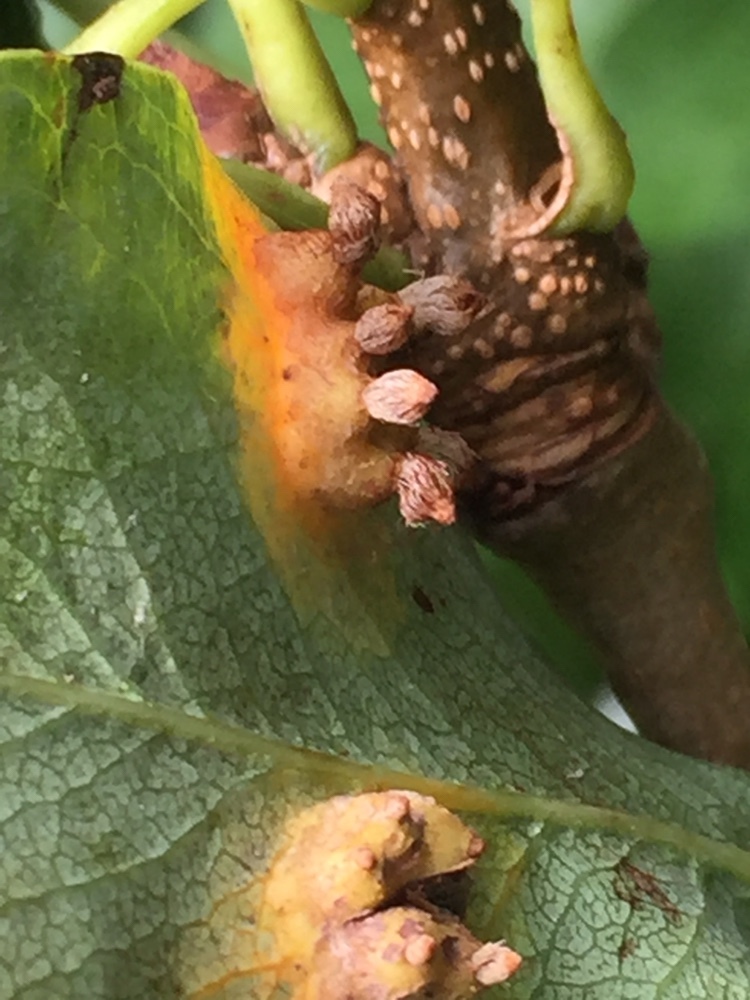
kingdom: Fungi
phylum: Basidiomycota
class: Pucciniomycetes
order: Pucciniales
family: Gymnosporangiaceae
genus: Gymnosporangium
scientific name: Gymnosporangium sabinae
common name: Pear trellis rust fungus
